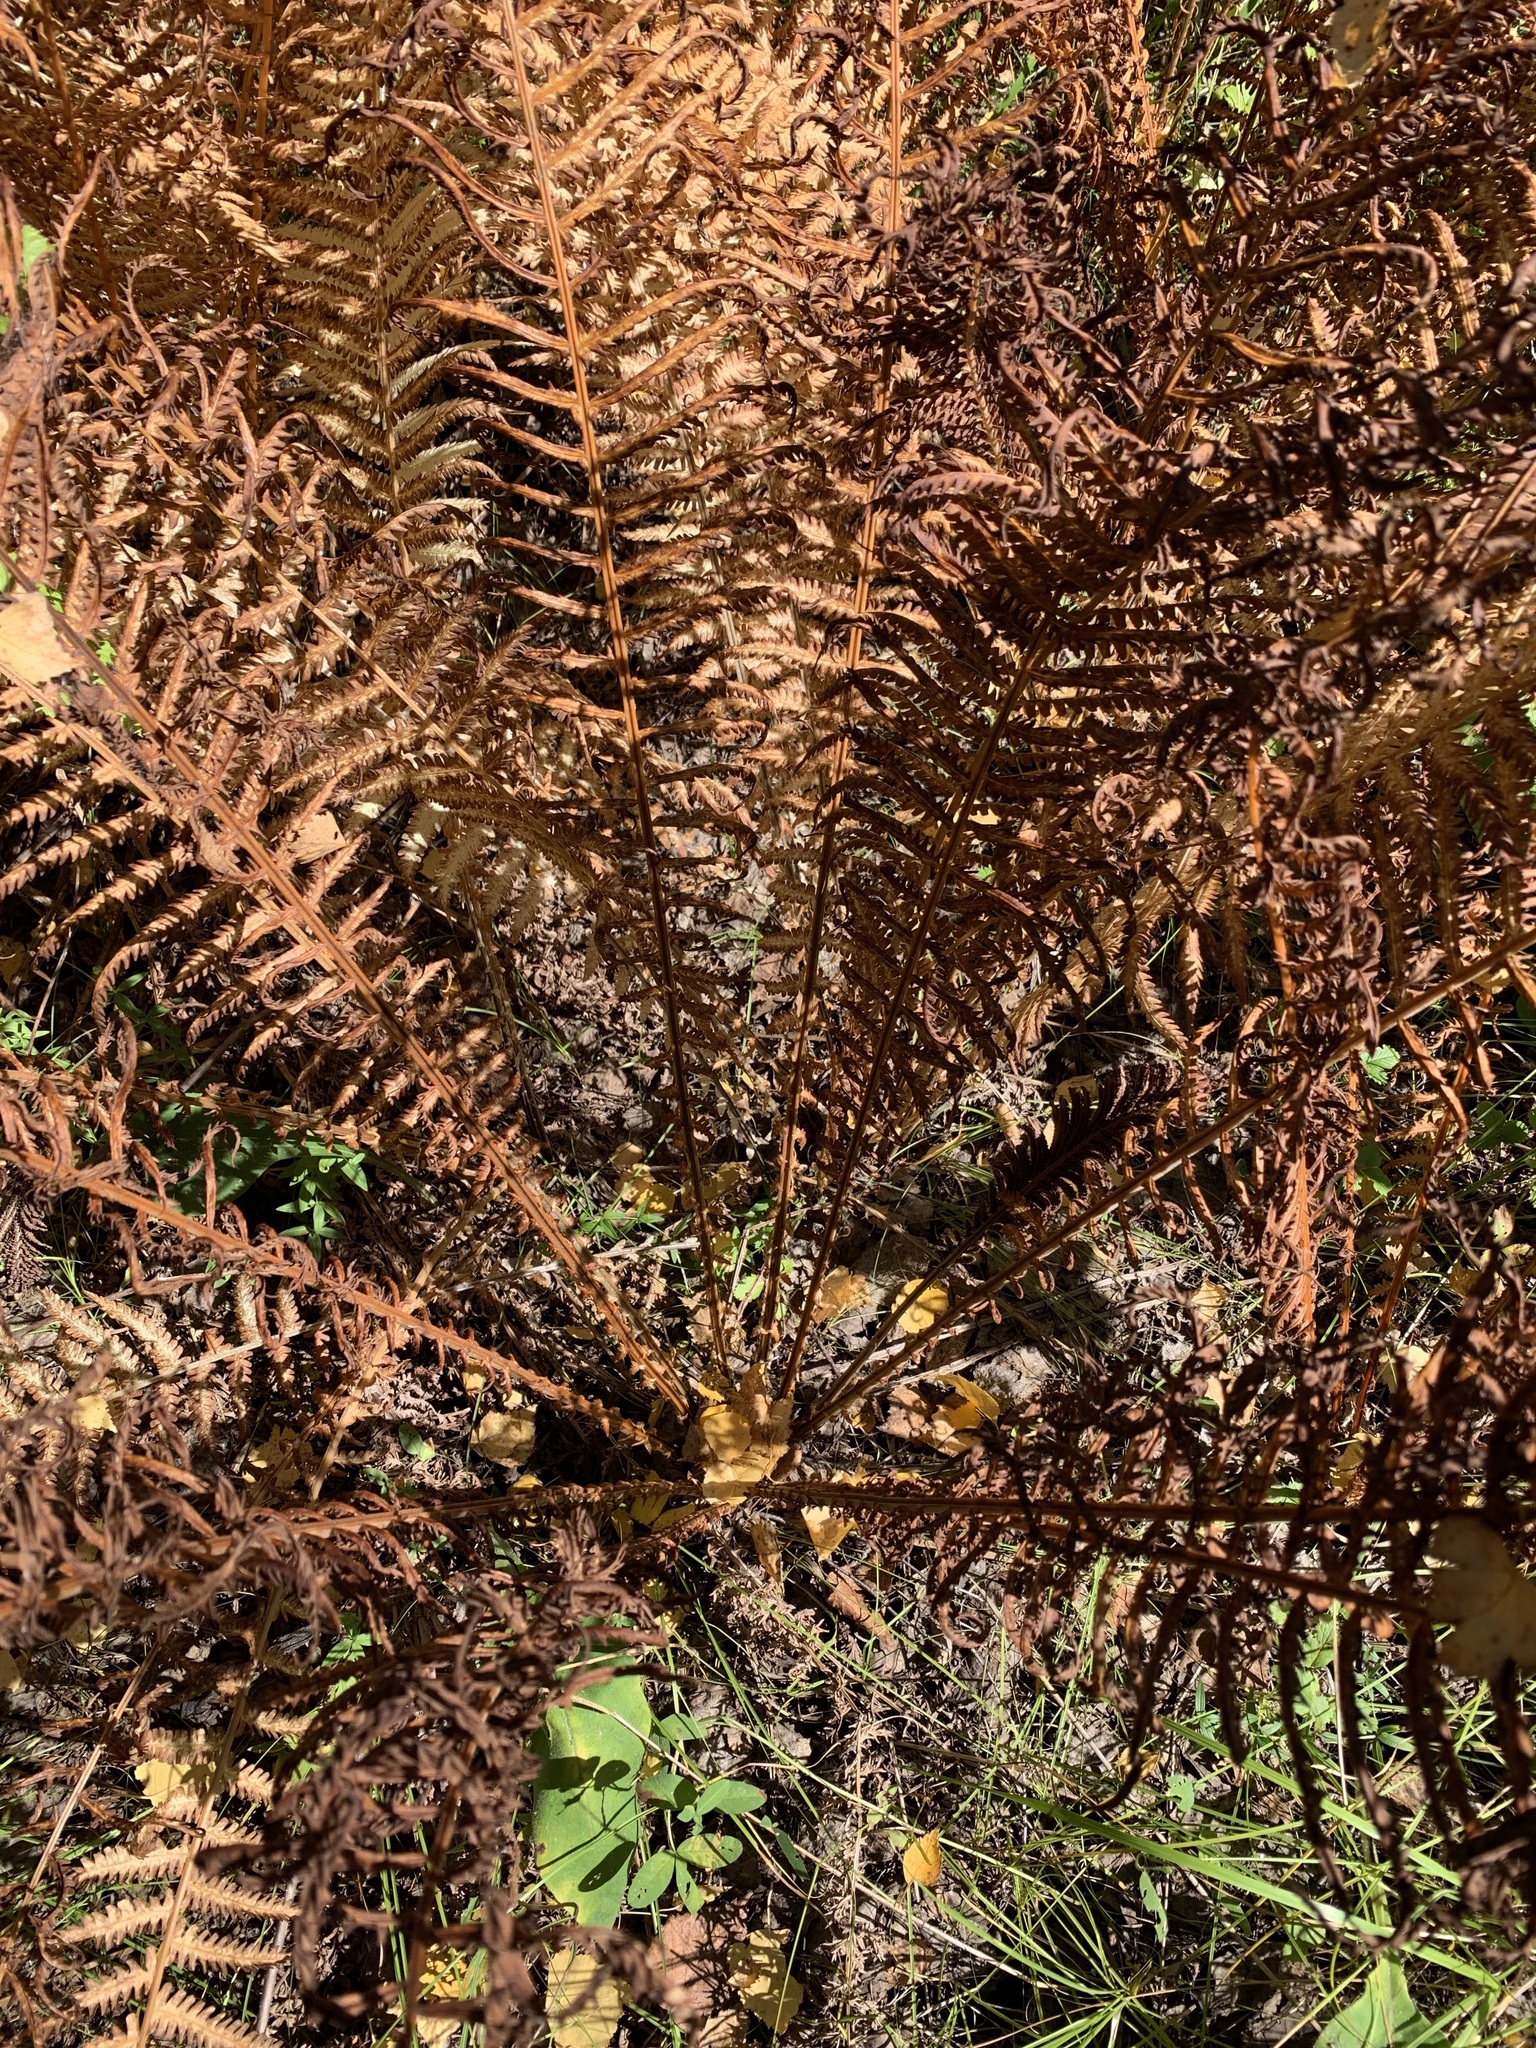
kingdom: Plantae
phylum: Tracheophyta
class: Polypodiopsida
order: Polypodiales
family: Onocleaceae
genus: Matteuccia
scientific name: Matteuccia struthiopteris
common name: Ostrich fern
